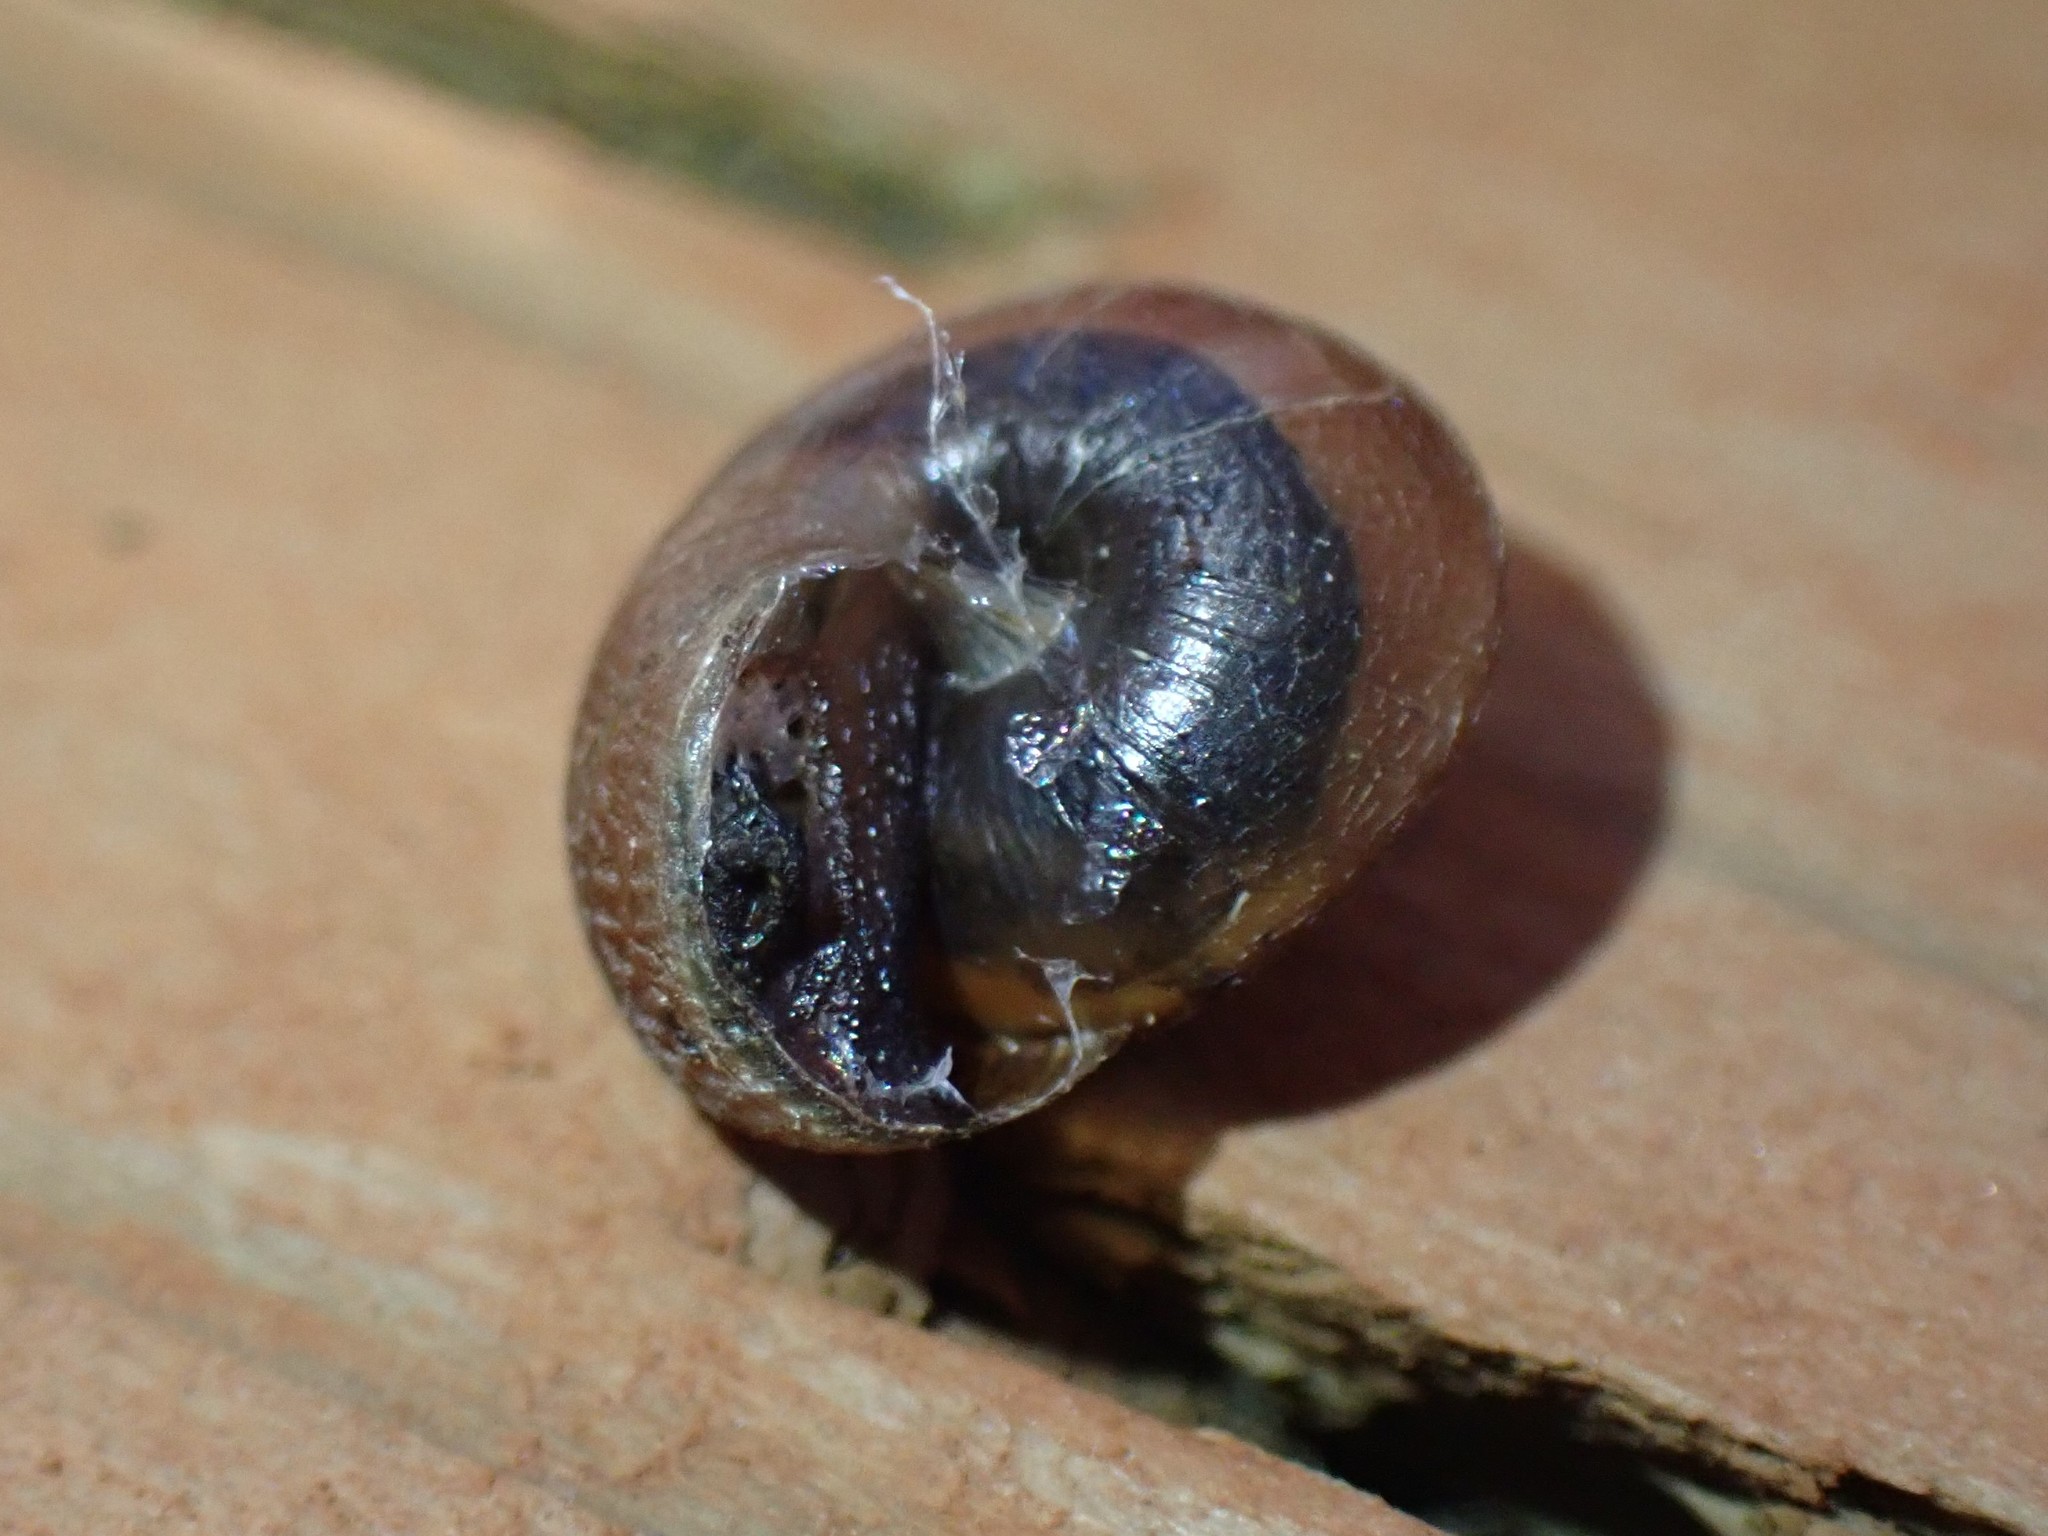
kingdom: Animalia
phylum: Mollusca
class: Gastropoda
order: Stylommatophora
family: Xanthonychidae
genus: Monadenia
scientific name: Monadenia fidelis
